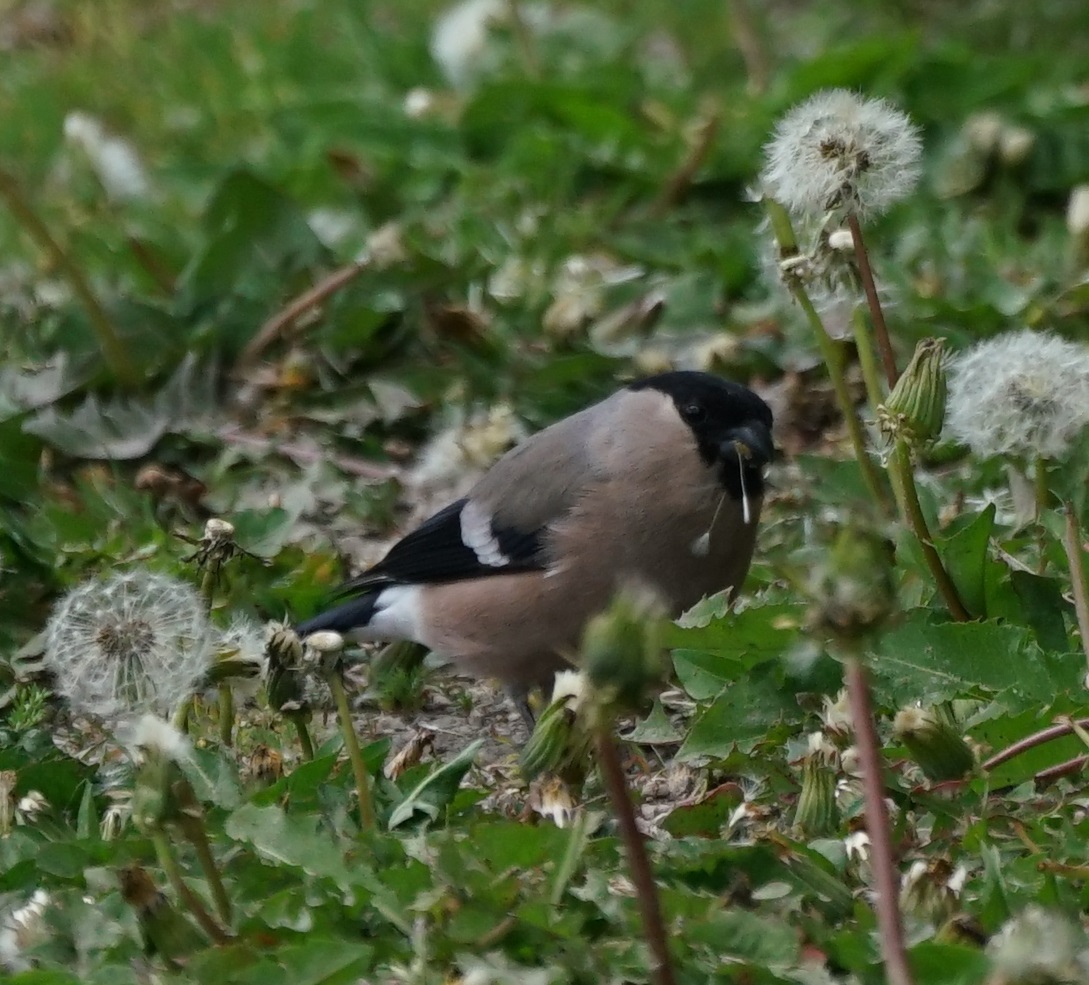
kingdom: Animalia
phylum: Chordata
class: Aves
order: Passeriformes
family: Fringillidae
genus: Pyrrhula
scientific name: Pyrrhula pyrrhula
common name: Eurasian bullfinch
